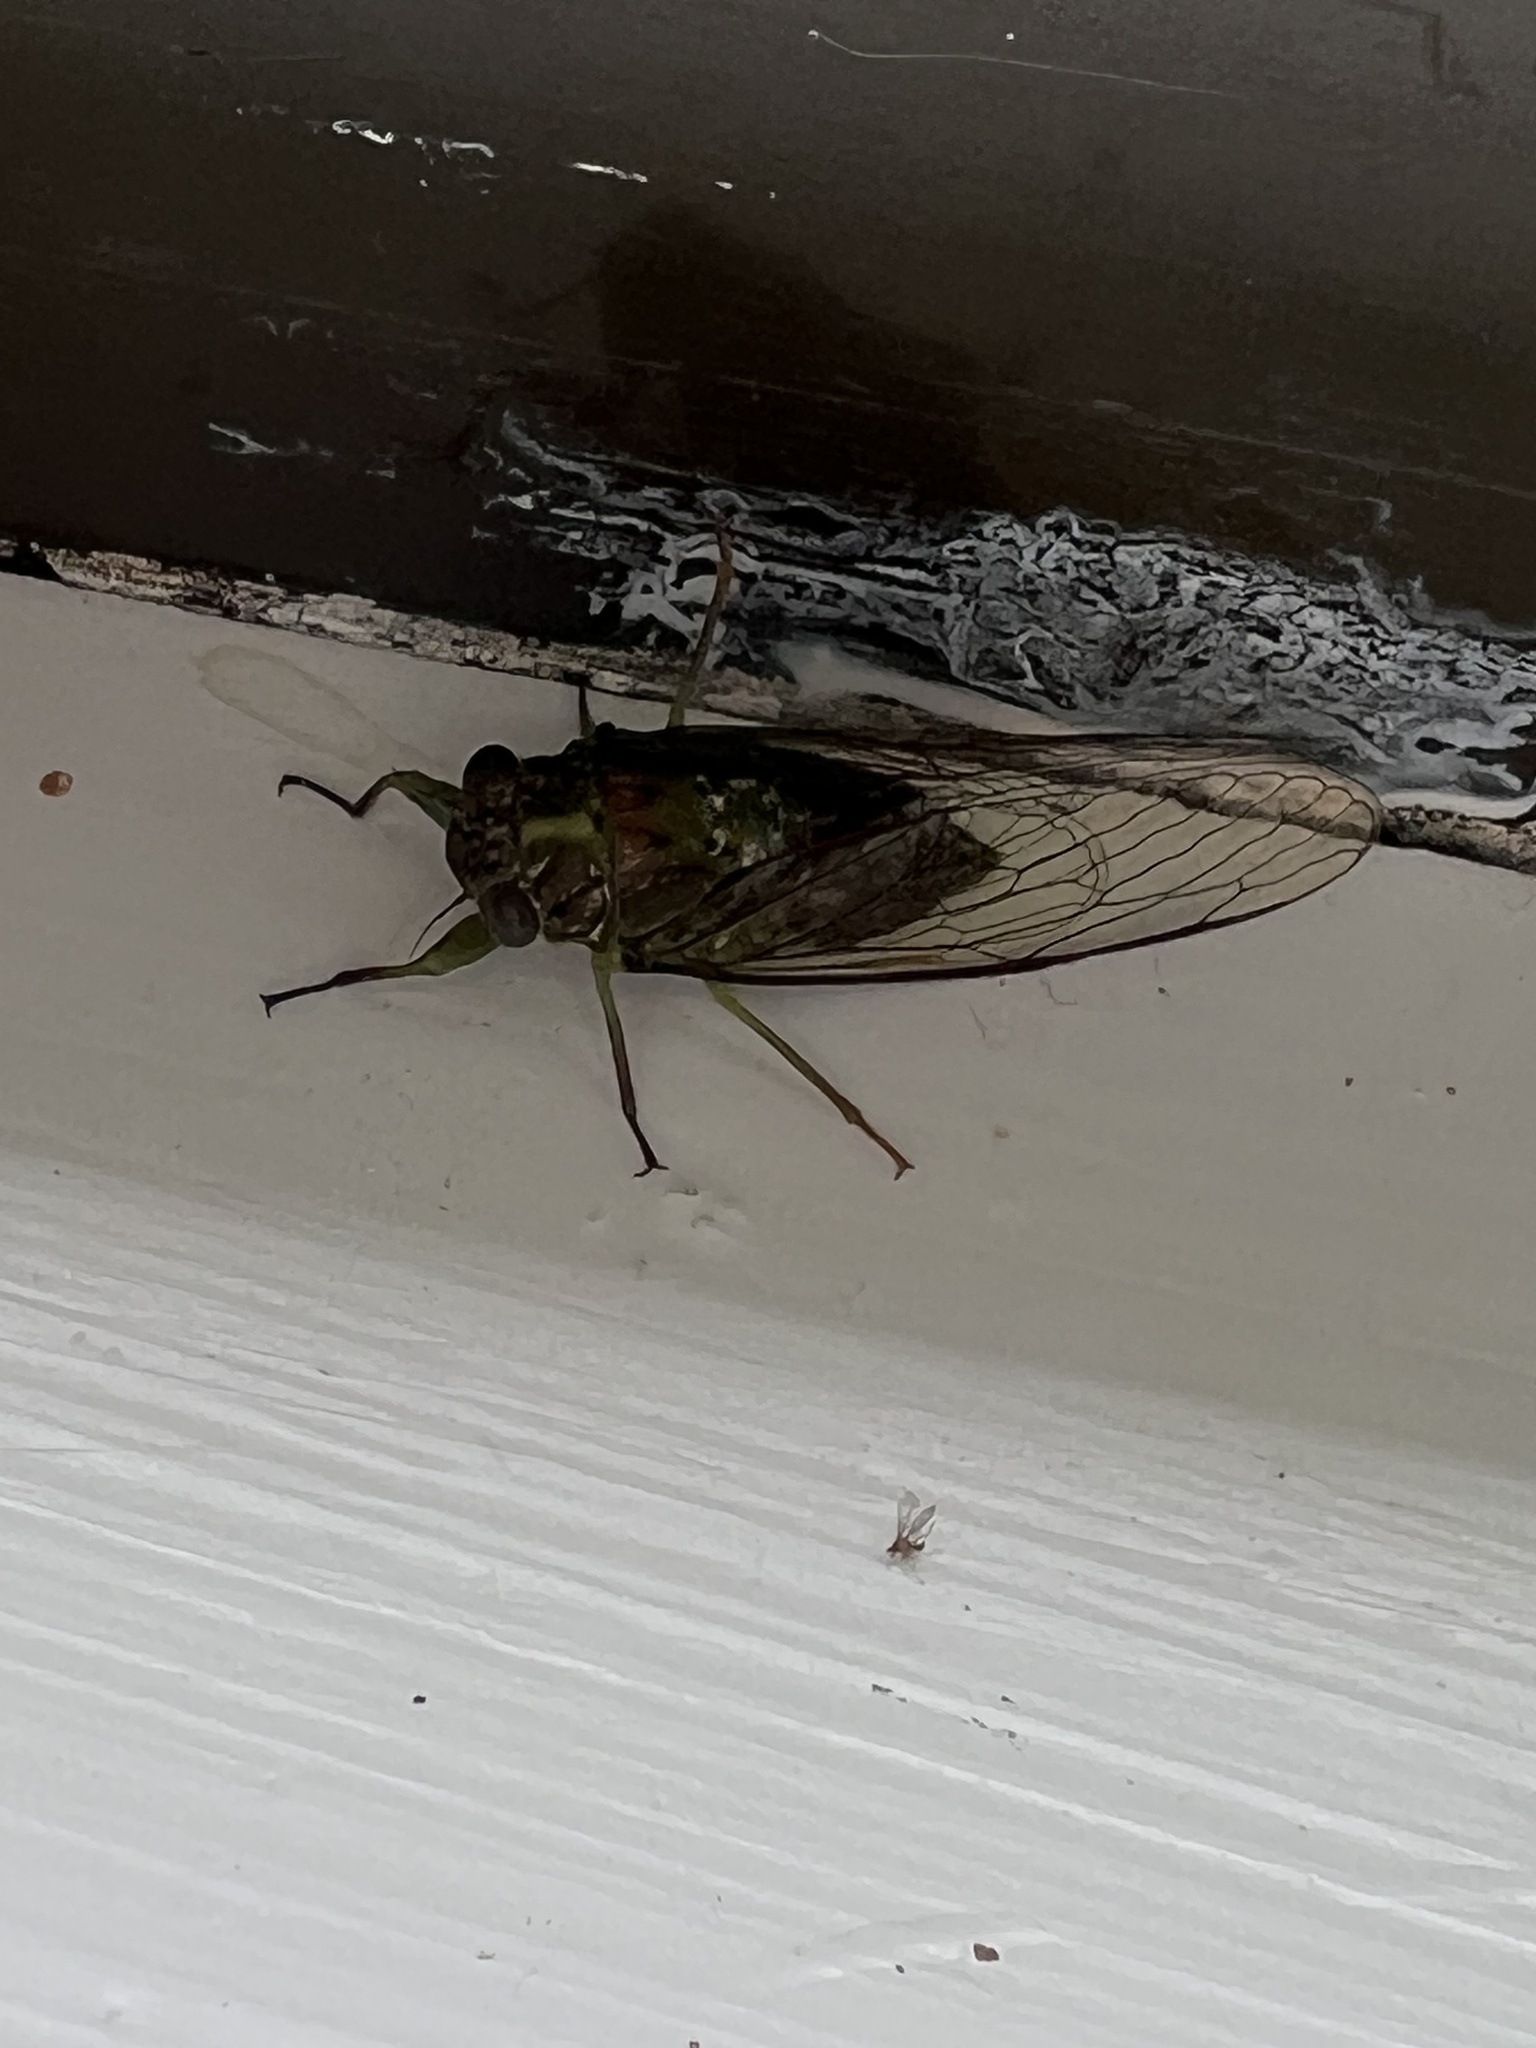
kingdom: Animalia
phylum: Arthropoda
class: Insecta
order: Hemiptera
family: Cicadidae
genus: Kikihia
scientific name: Kikihia scutellaris
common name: Lesser bronze cicada
